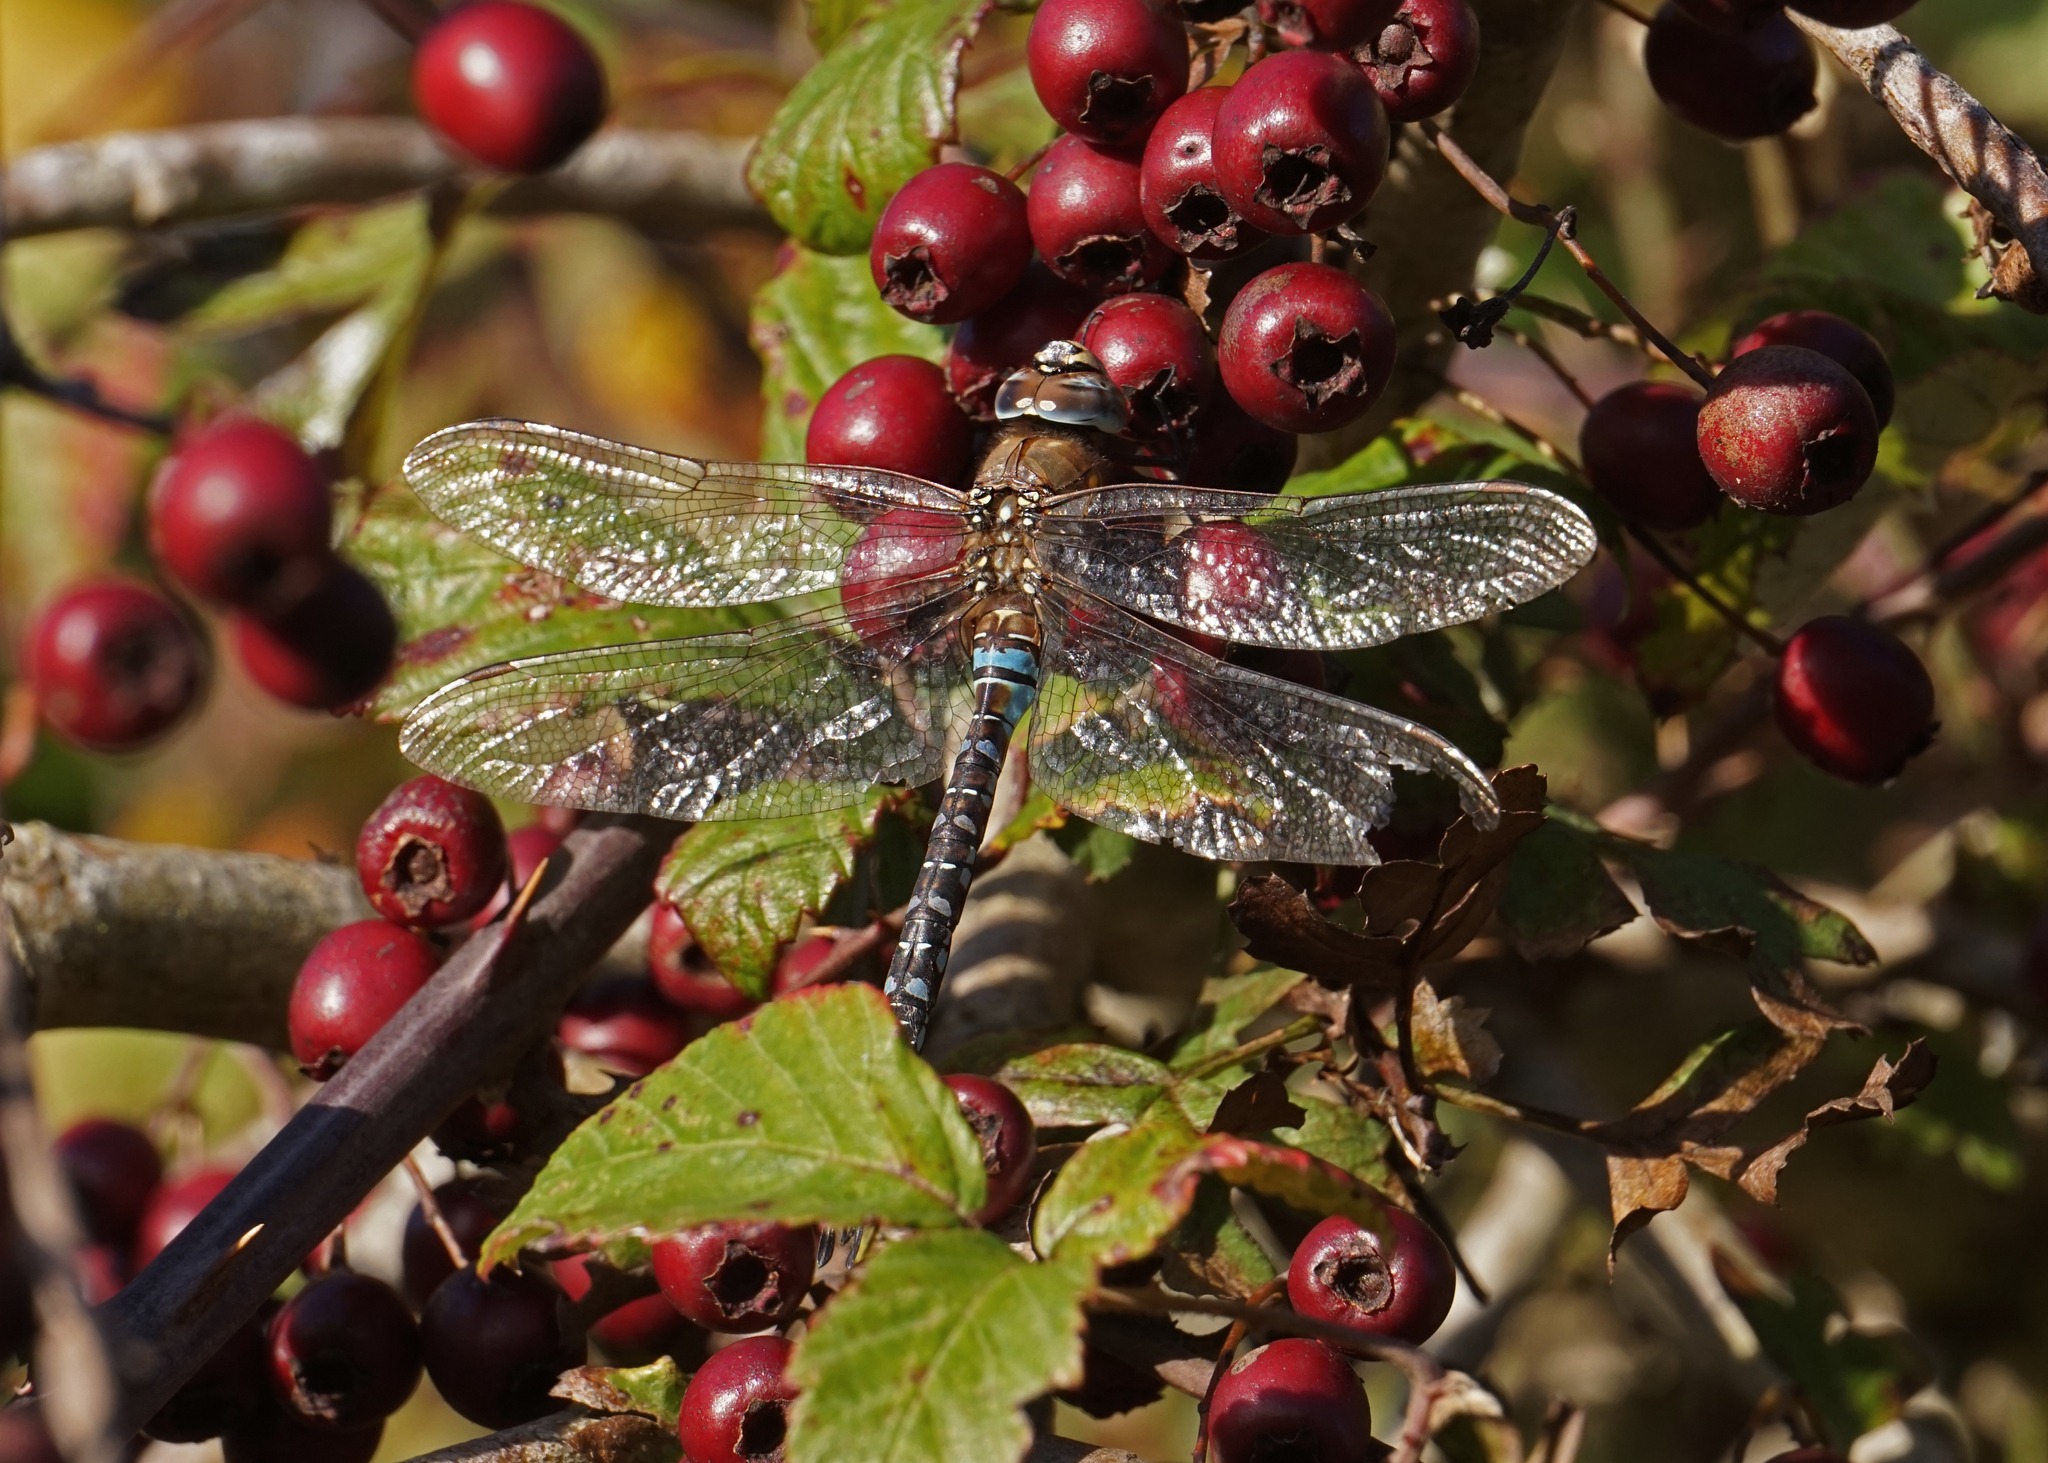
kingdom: Animalia
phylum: Arthropoda
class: Insecta
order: Odonata
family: Aeshnidae
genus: Aeshna
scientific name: Aeshna mixta
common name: Migrant hawker
